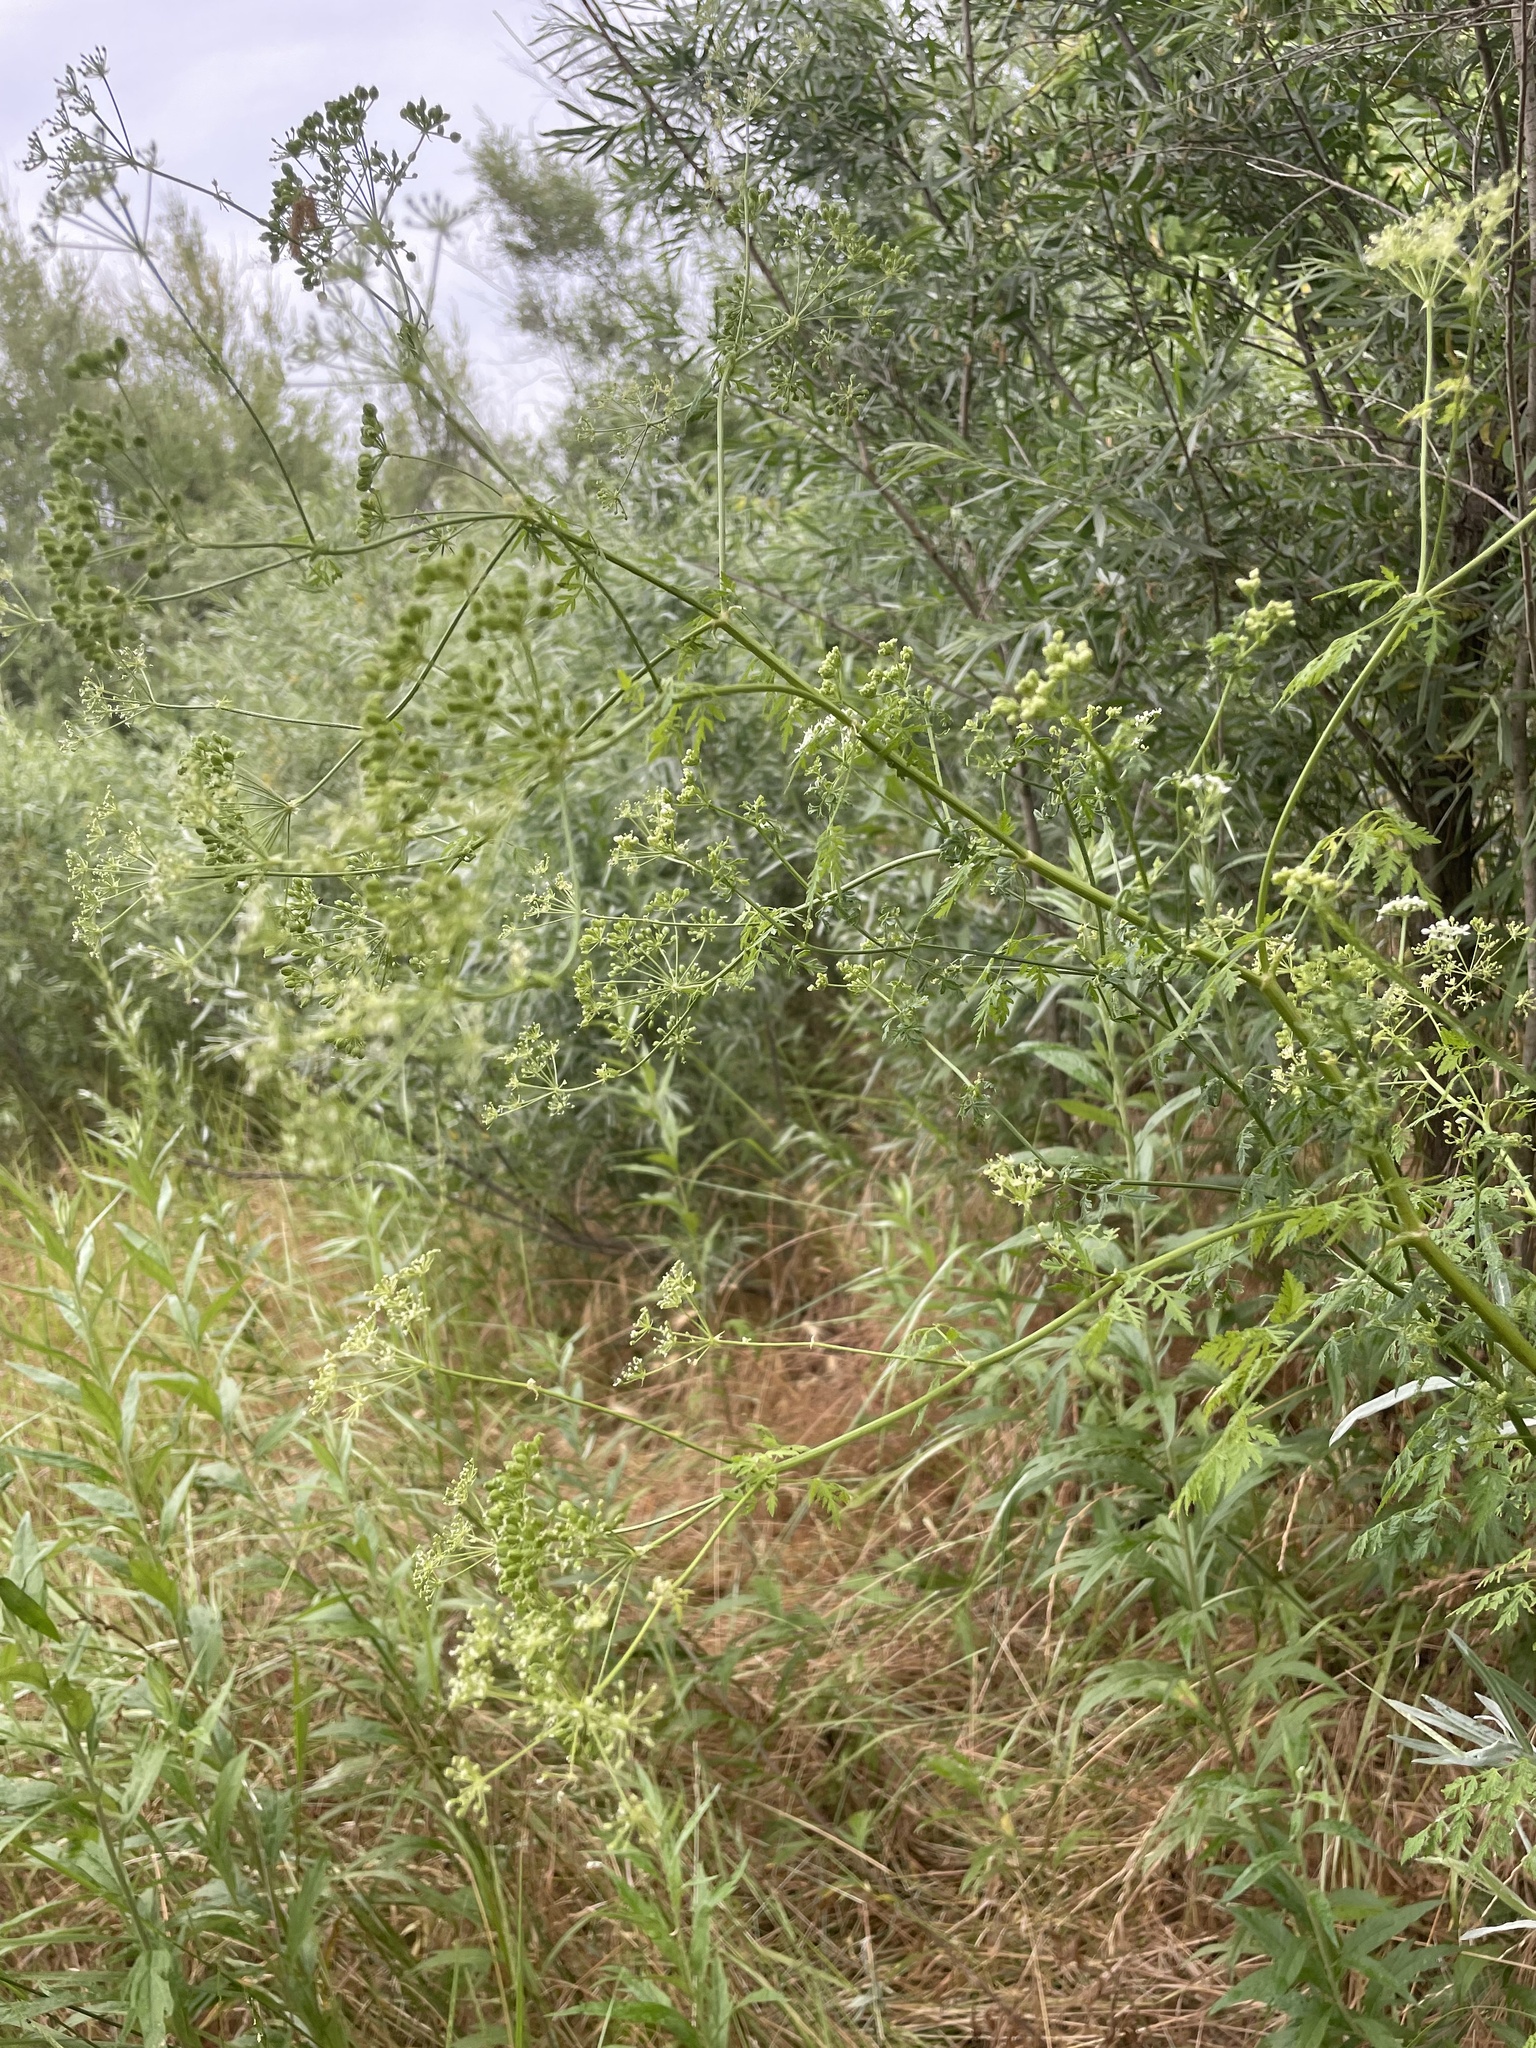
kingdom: Plantae
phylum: Tracheophyta
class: Magnoliopsida
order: Apiales
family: Apiaceae
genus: Conium
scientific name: Conium maculatum
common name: Hemlock
